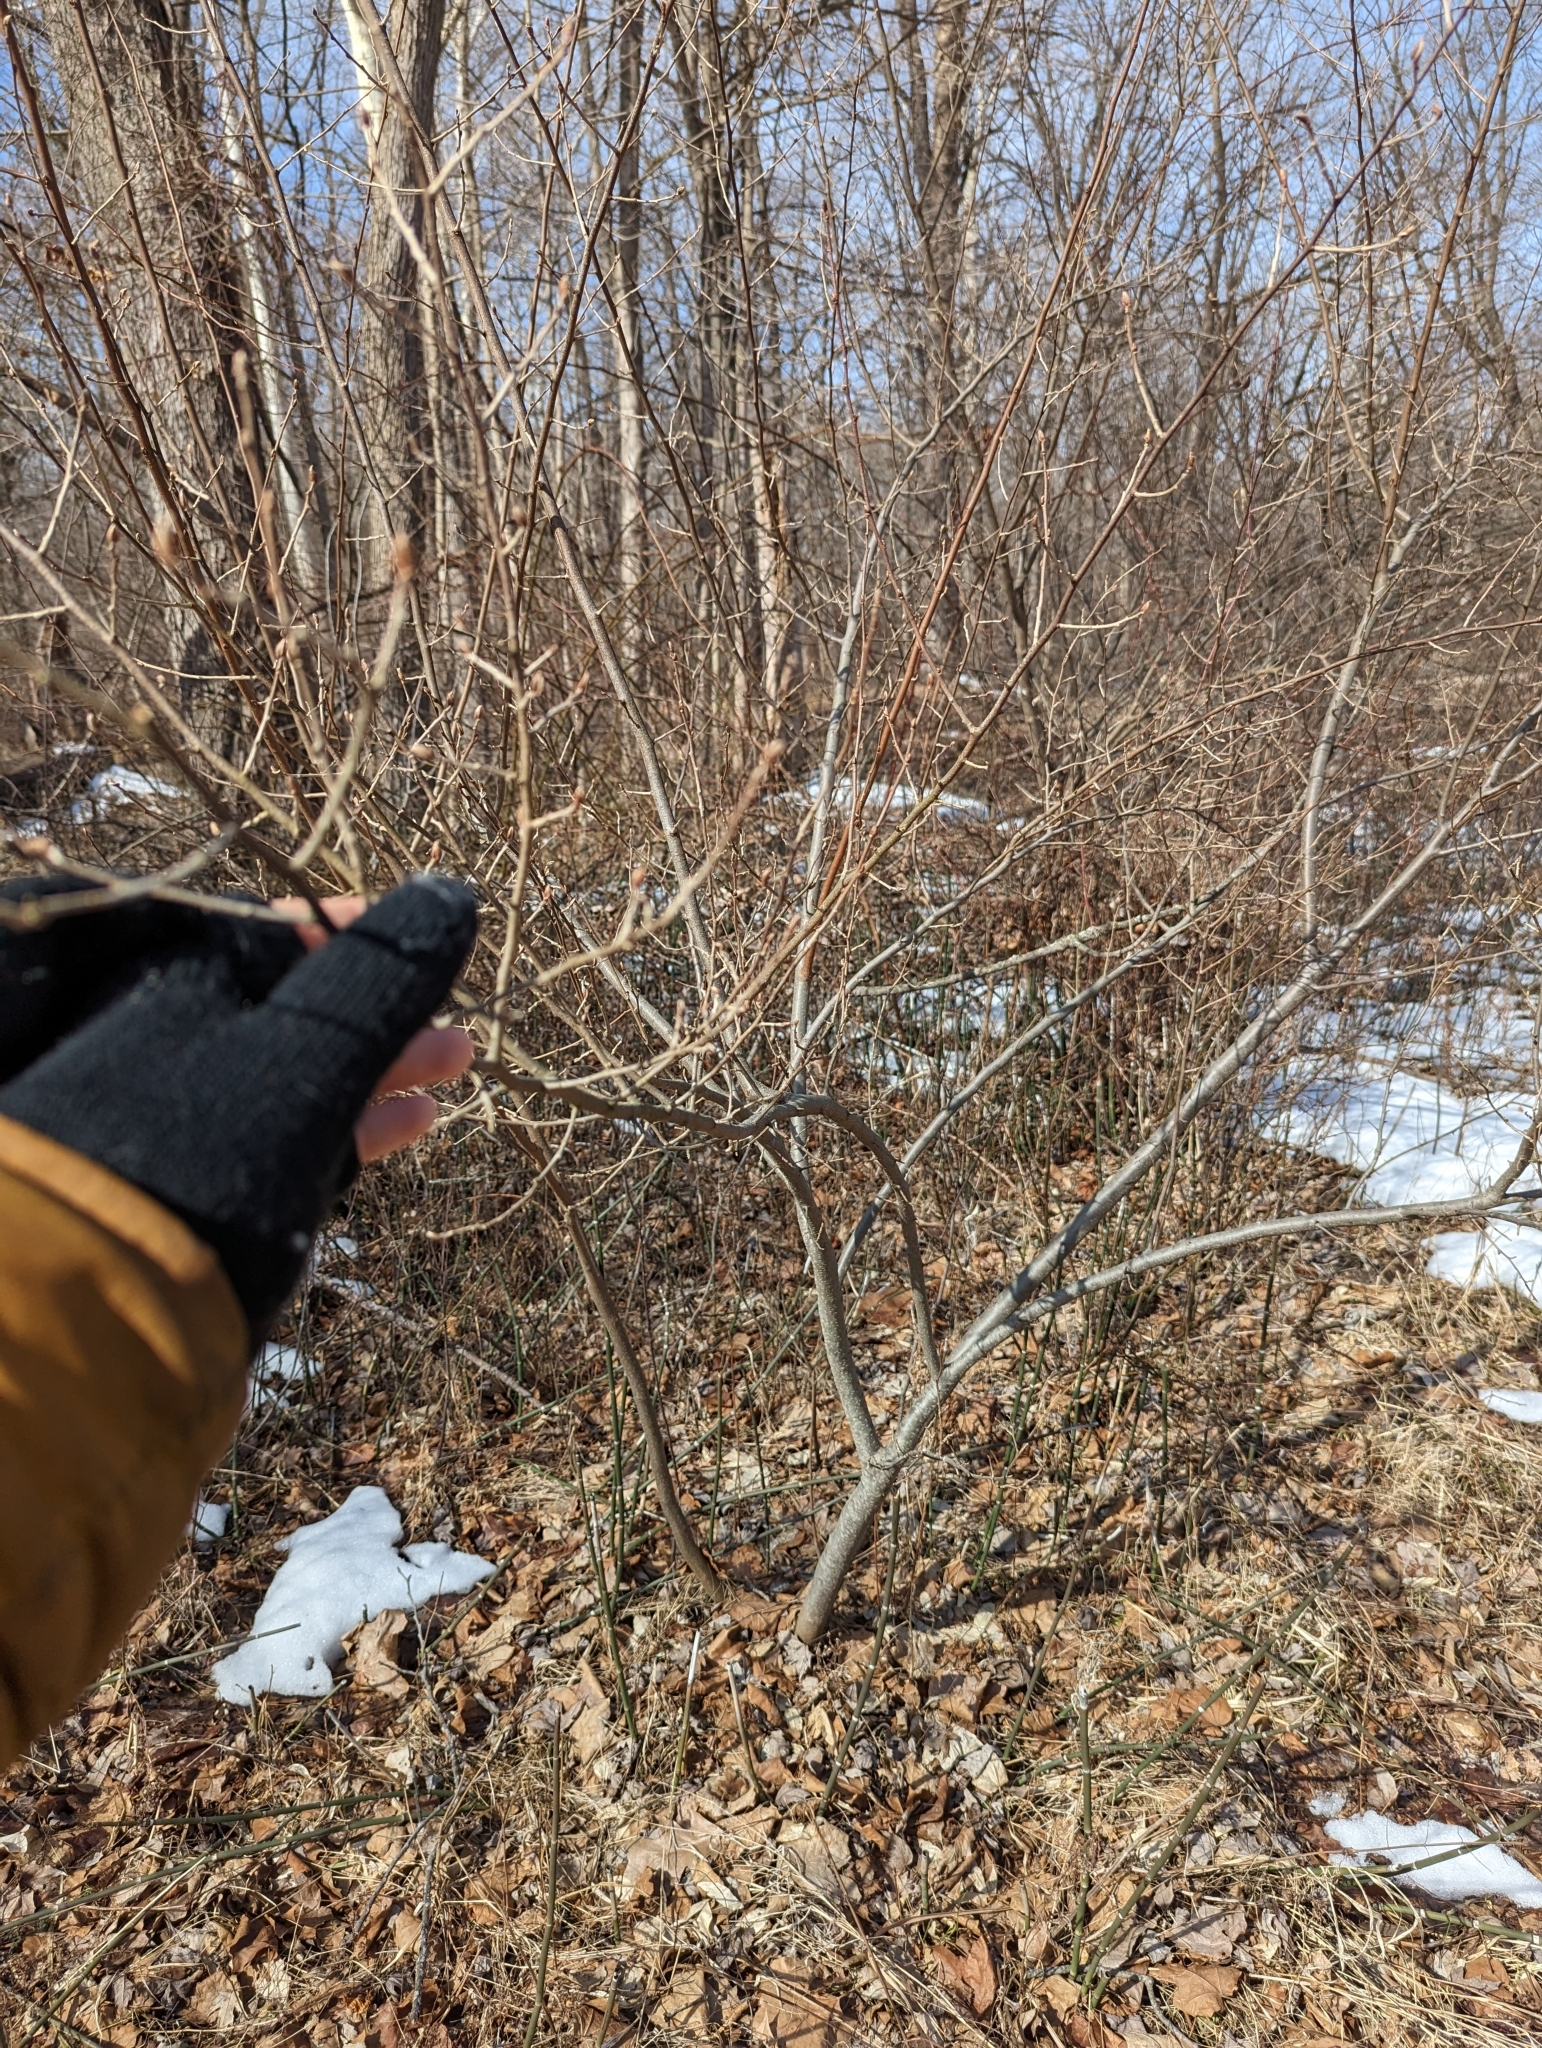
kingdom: Plantae
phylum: Tracheophyta
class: Magnoliopsida
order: Rosales
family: Elaeagnaceae
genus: Elaeagnus
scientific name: Elaeagnus umbellata
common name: Autumn olive
